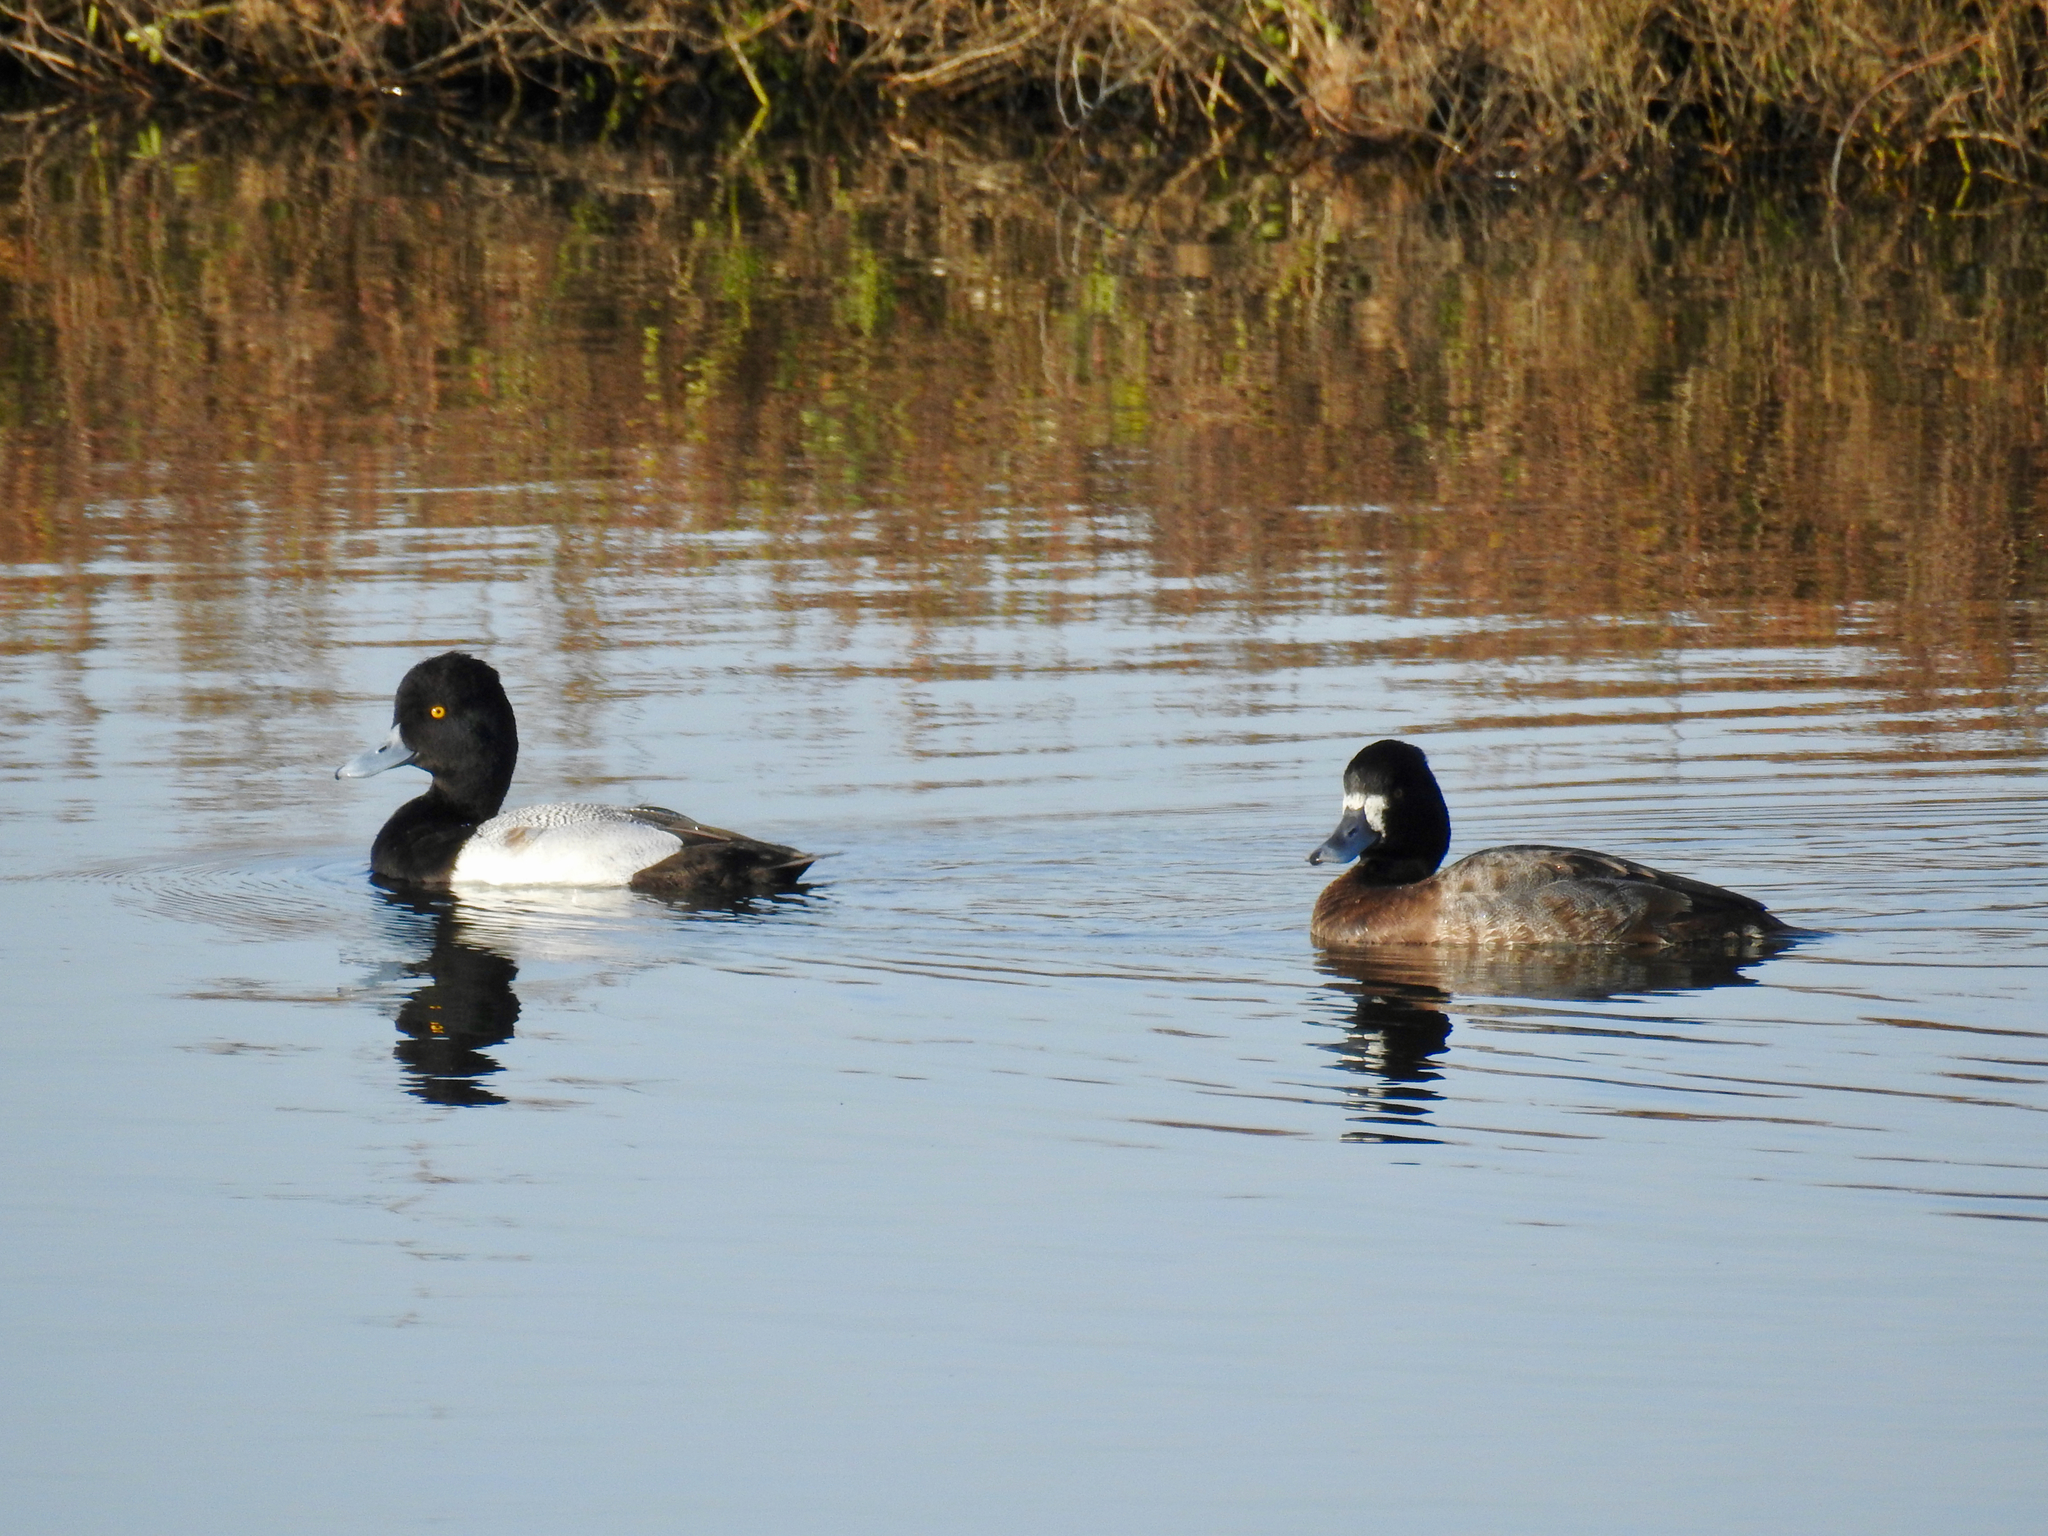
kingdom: Animalia
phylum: Chordata
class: Aves
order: Anseriformes
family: Anatidae
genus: Aythya
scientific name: Aythya affinis
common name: Lesser scaup
